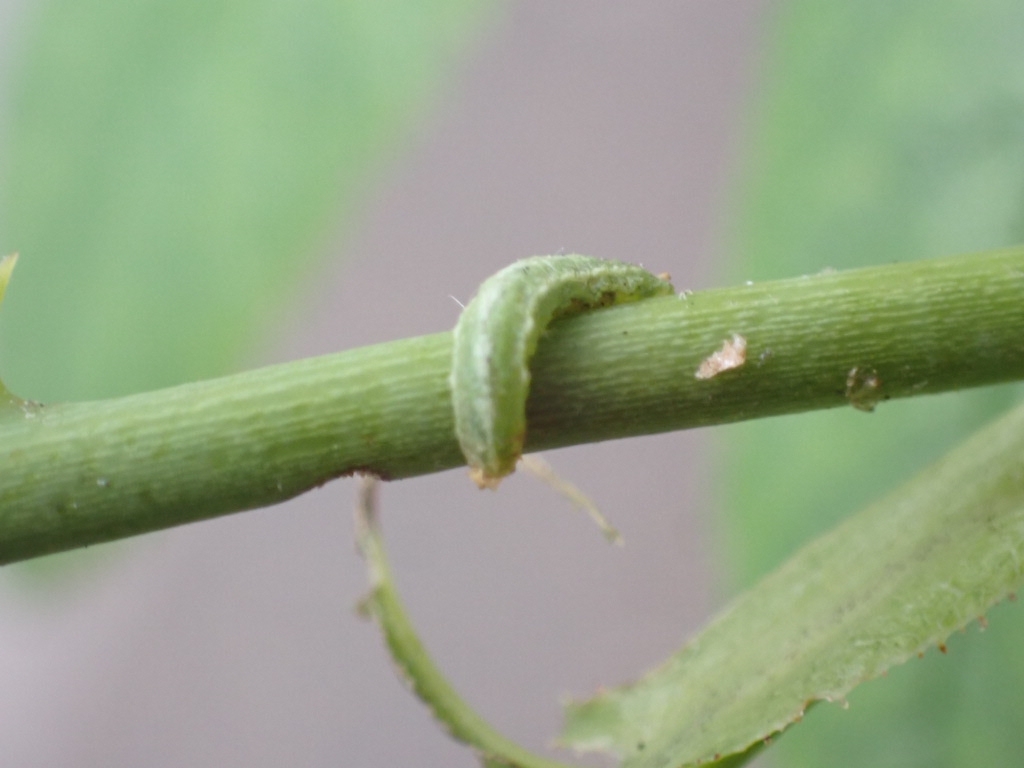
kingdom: Animalia
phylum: Arthropoda
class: Insecta
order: Diptera
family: Syrphidae
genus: Platycheirus
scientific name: Platycheirus
